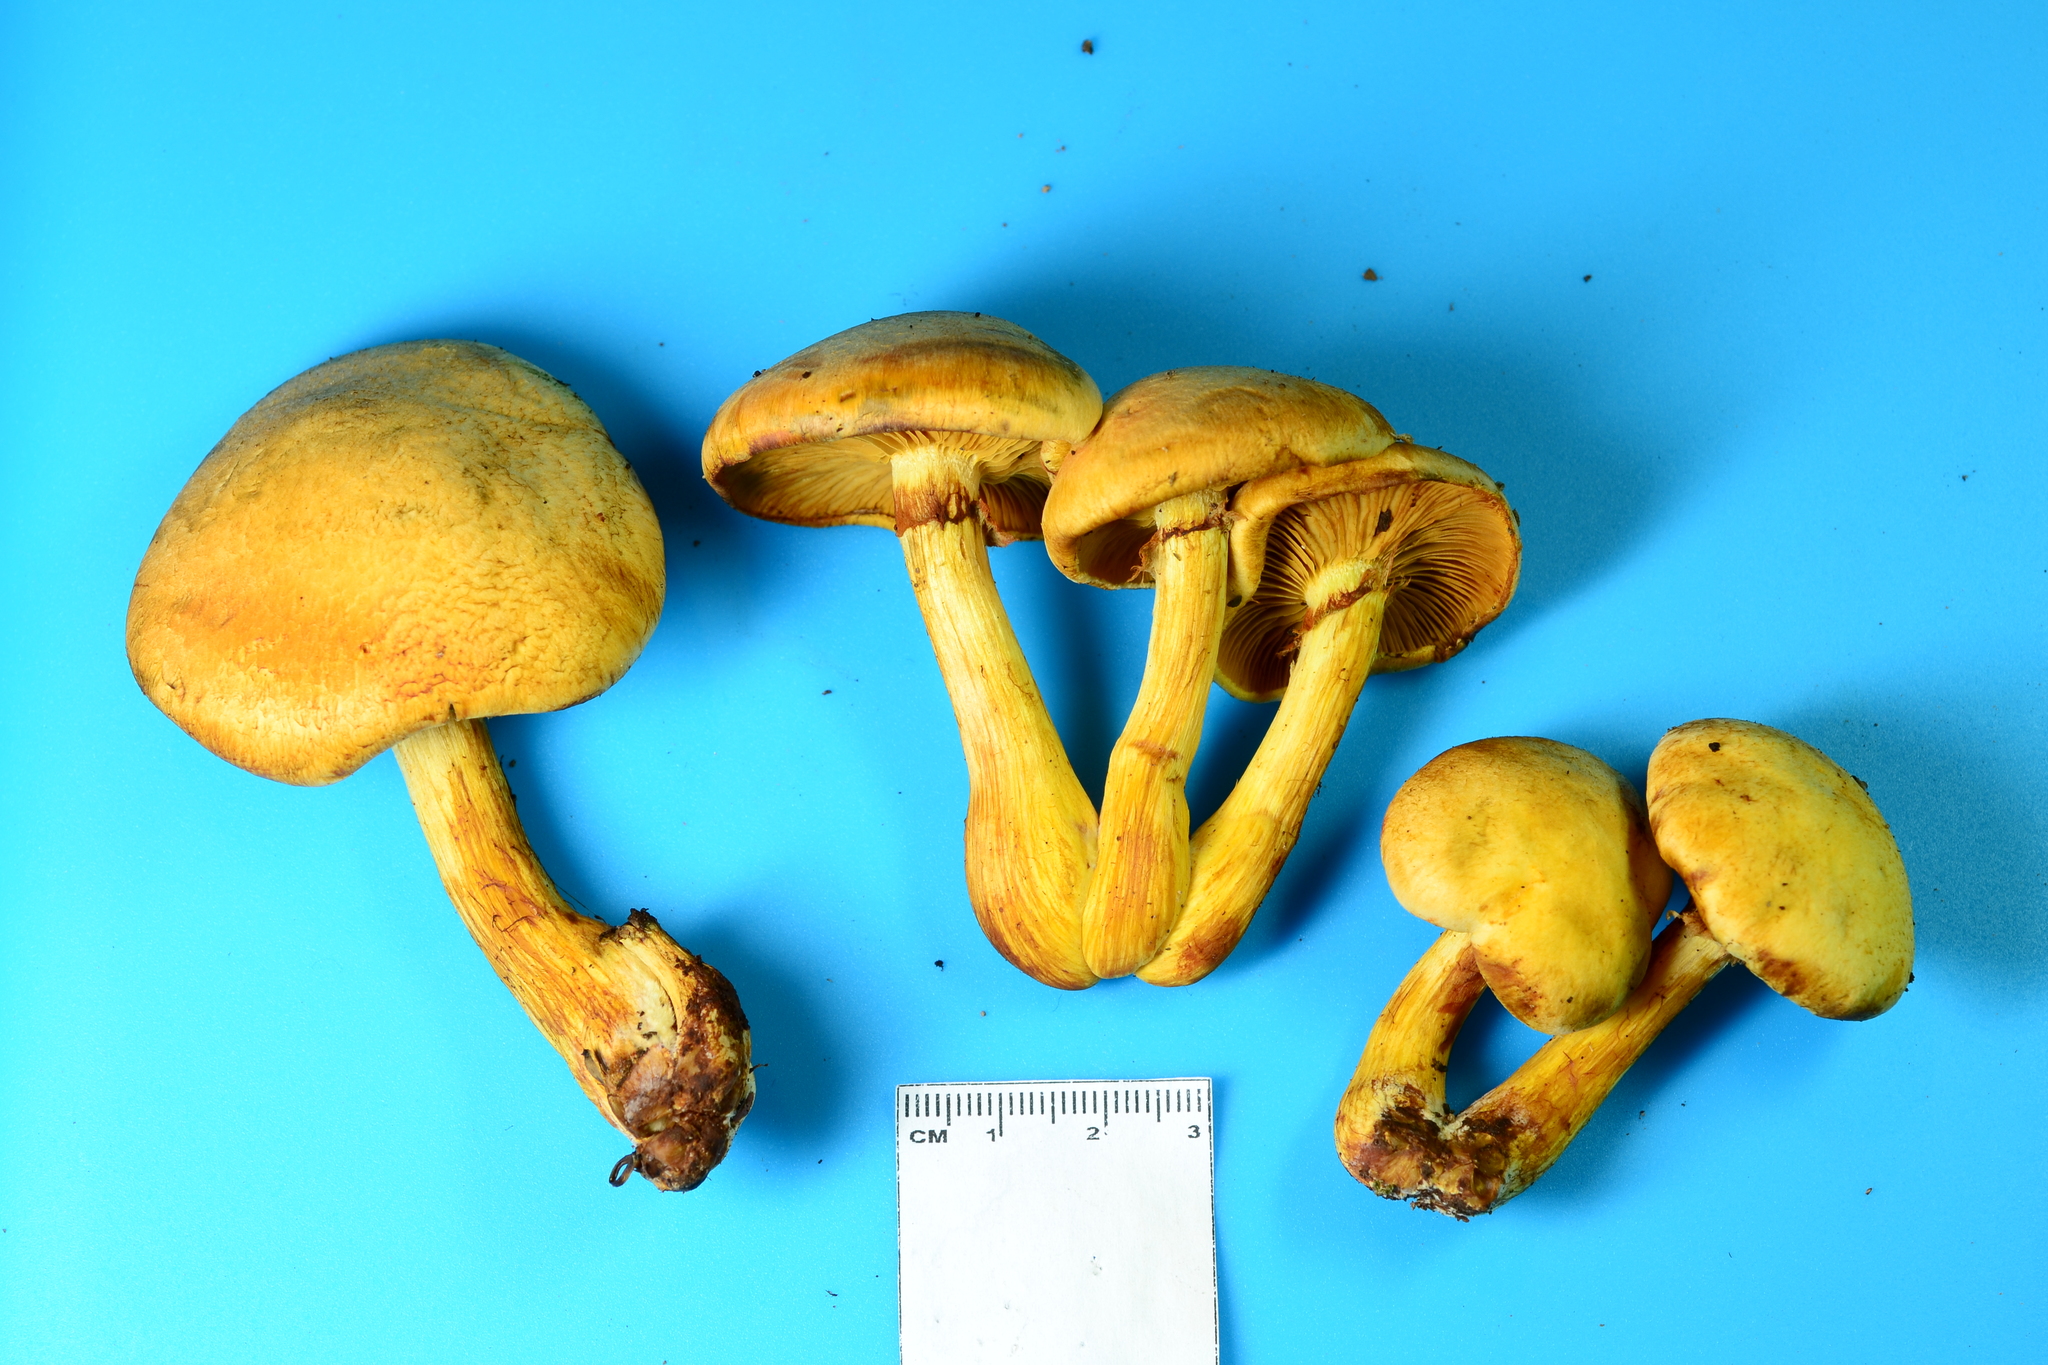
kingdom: Fungi
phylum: Basidiomycota
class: Agaricomycetes
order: Agaricales
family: Hymenogastraceae
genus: Gymnopilus
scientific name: Gymnopilus luteus
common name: Yellow gymnopilus
